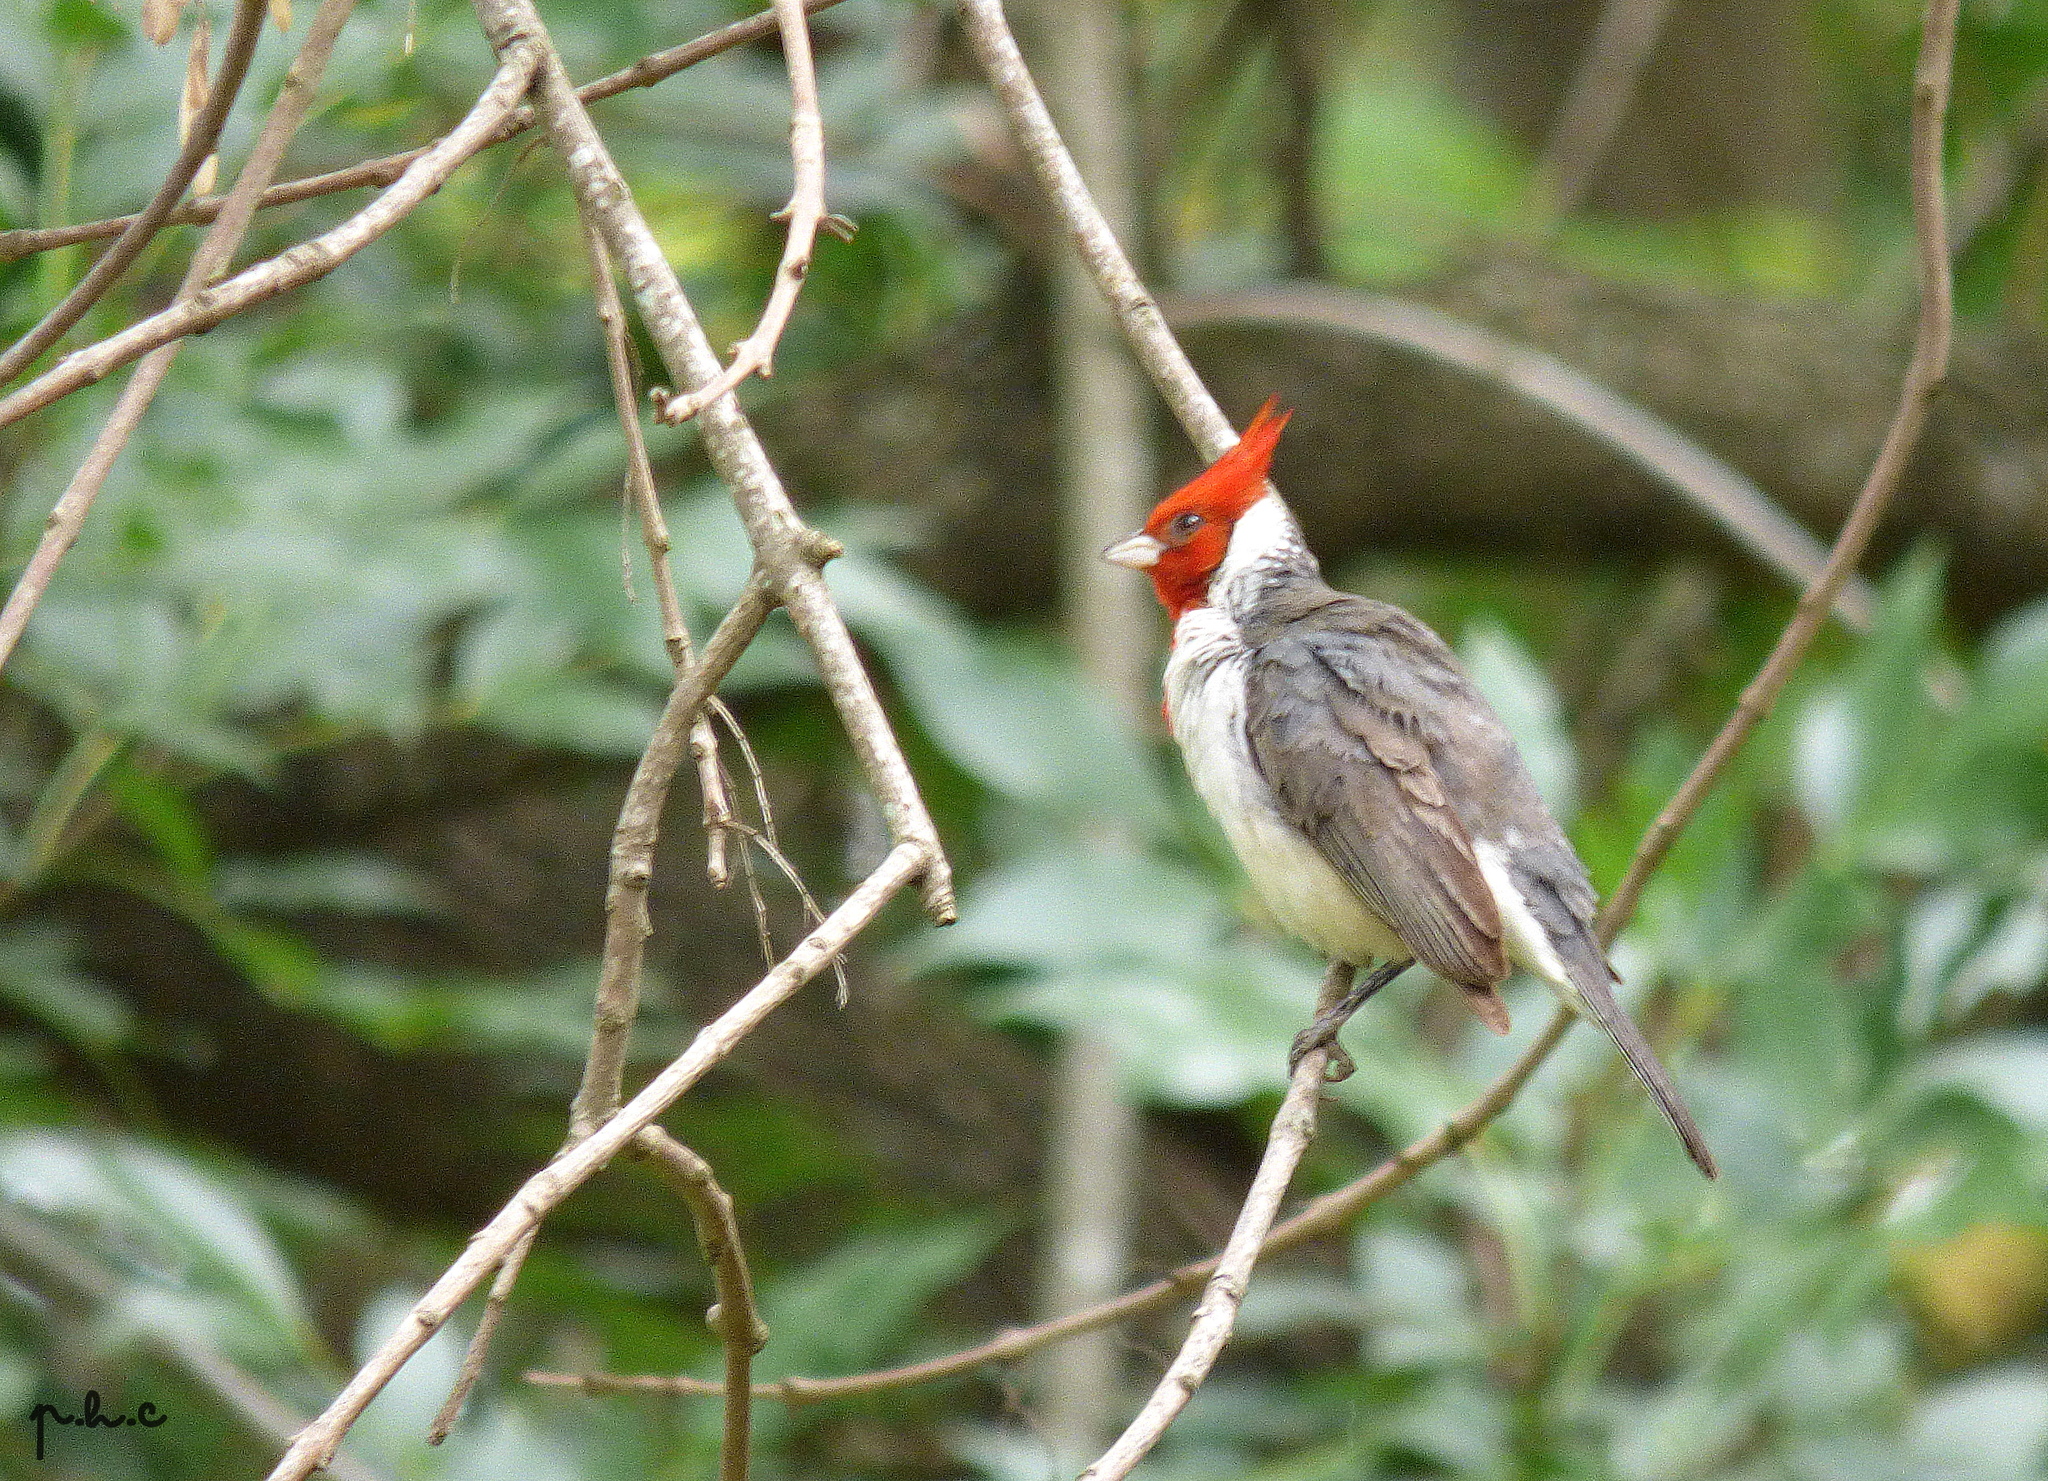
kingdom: Animalia
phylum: Chordata
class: Aves
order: Passeriformes
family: Thraupidae
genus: Paroaria
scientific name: Paroaria coronata
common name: Red-crested cardinal
